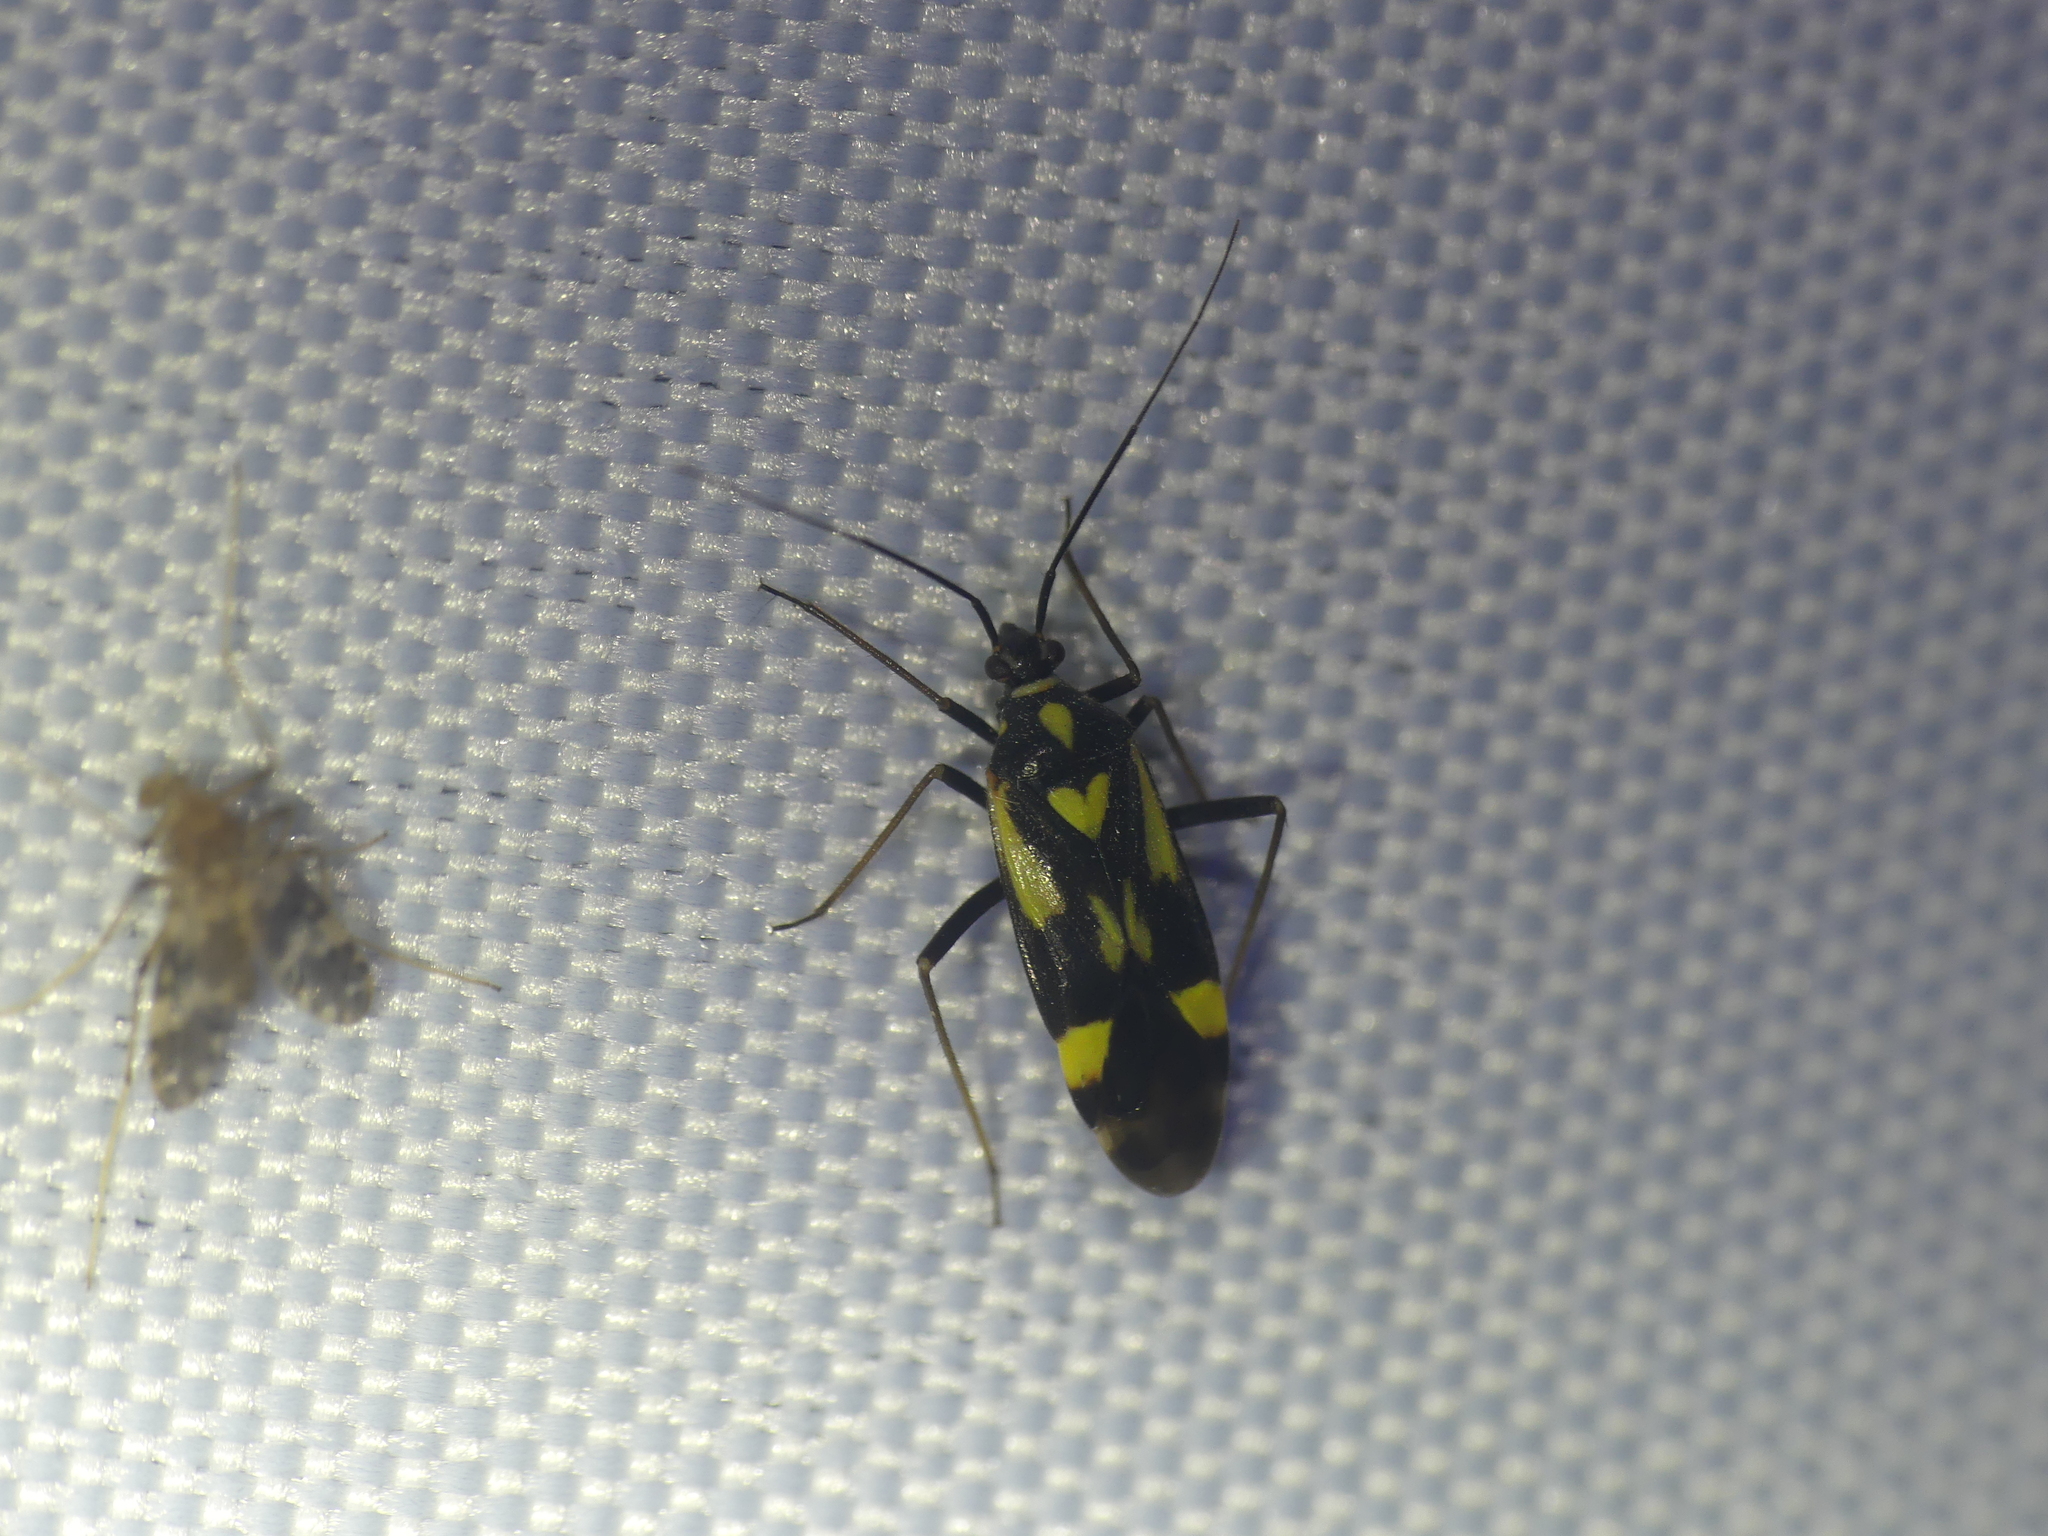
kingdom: Animalia
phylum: Arthropoda
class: Insecta
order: Hemiptera
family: Miridae
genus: Grypocoris
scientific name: Grypocoris sexguttatus
